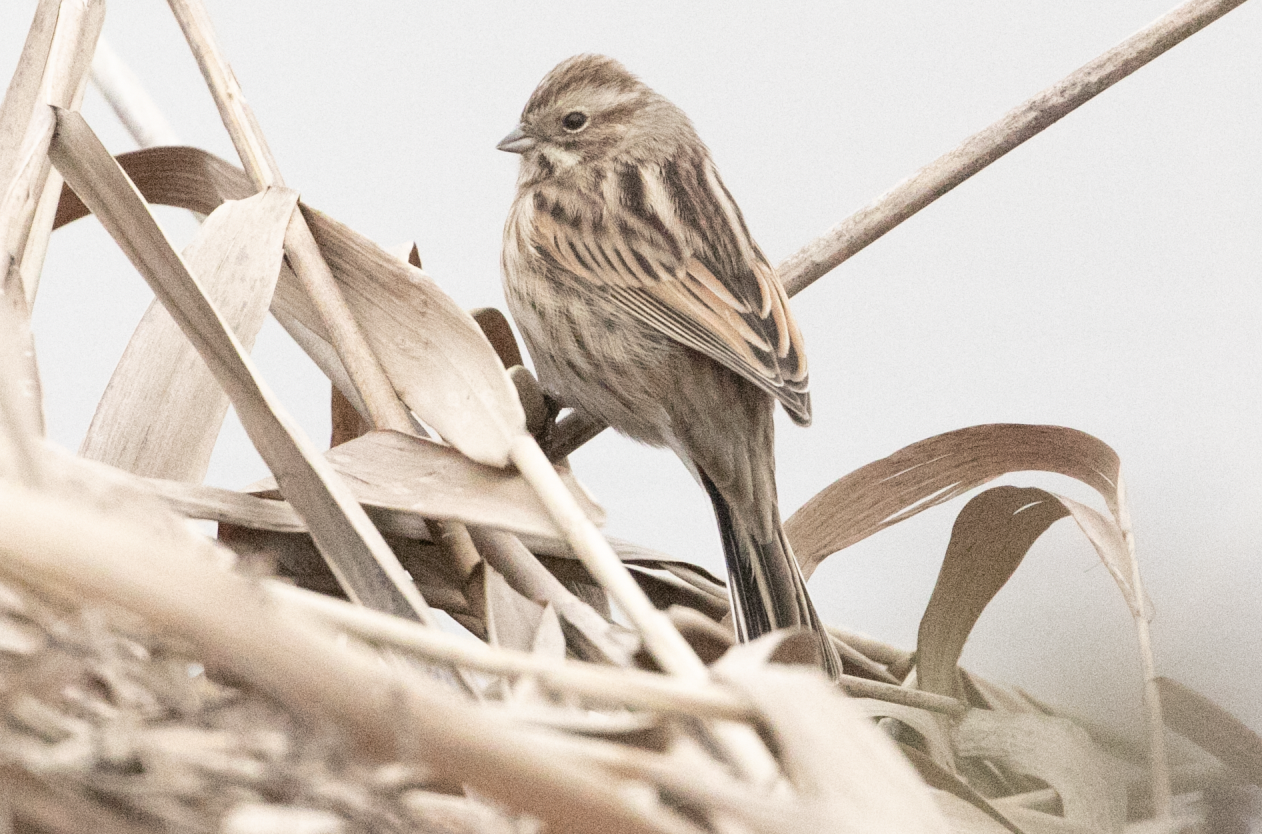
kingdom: Animalia
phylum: Chordata
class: Aves
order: Passeriformes
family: Emberizidae
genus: Emberiza
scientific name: Emberiza schoeniclus
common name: Reed bunting
